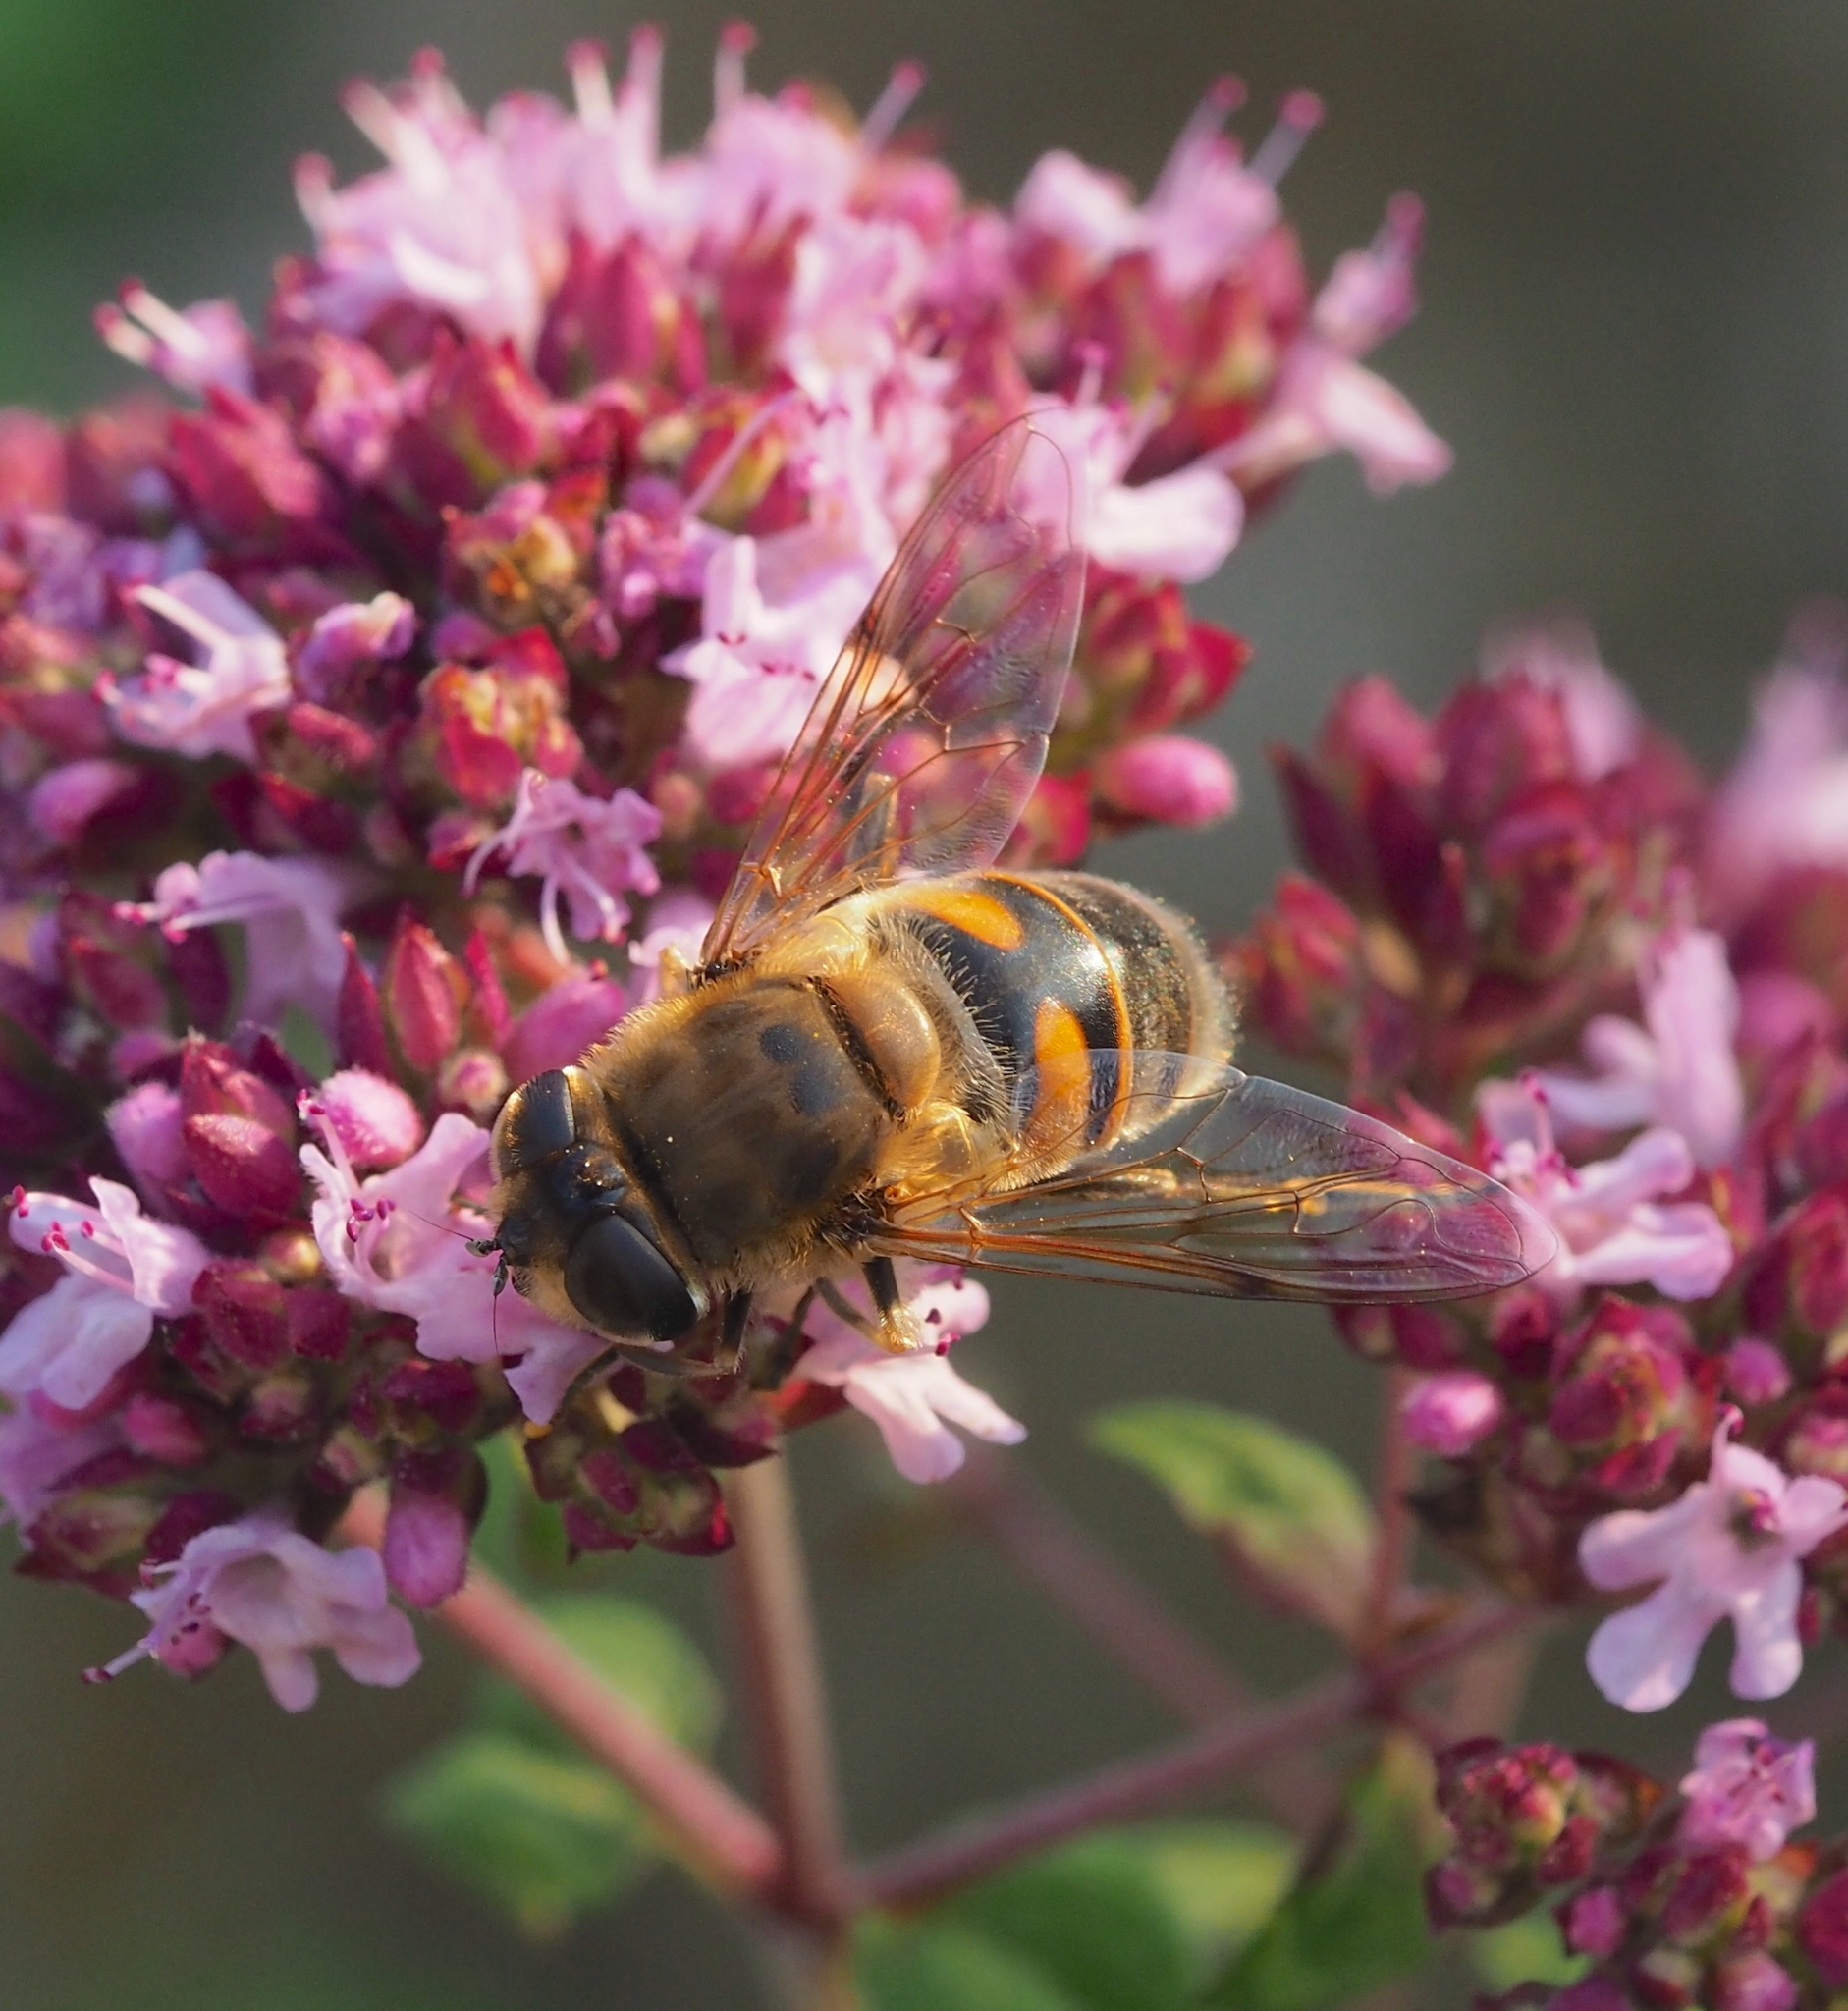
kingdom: Animalia
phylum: Arthropoda
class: Insecta
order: Diptera
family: Syrphidae
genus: Eristalis
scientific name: Eristalis tenax
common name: Drone fly
